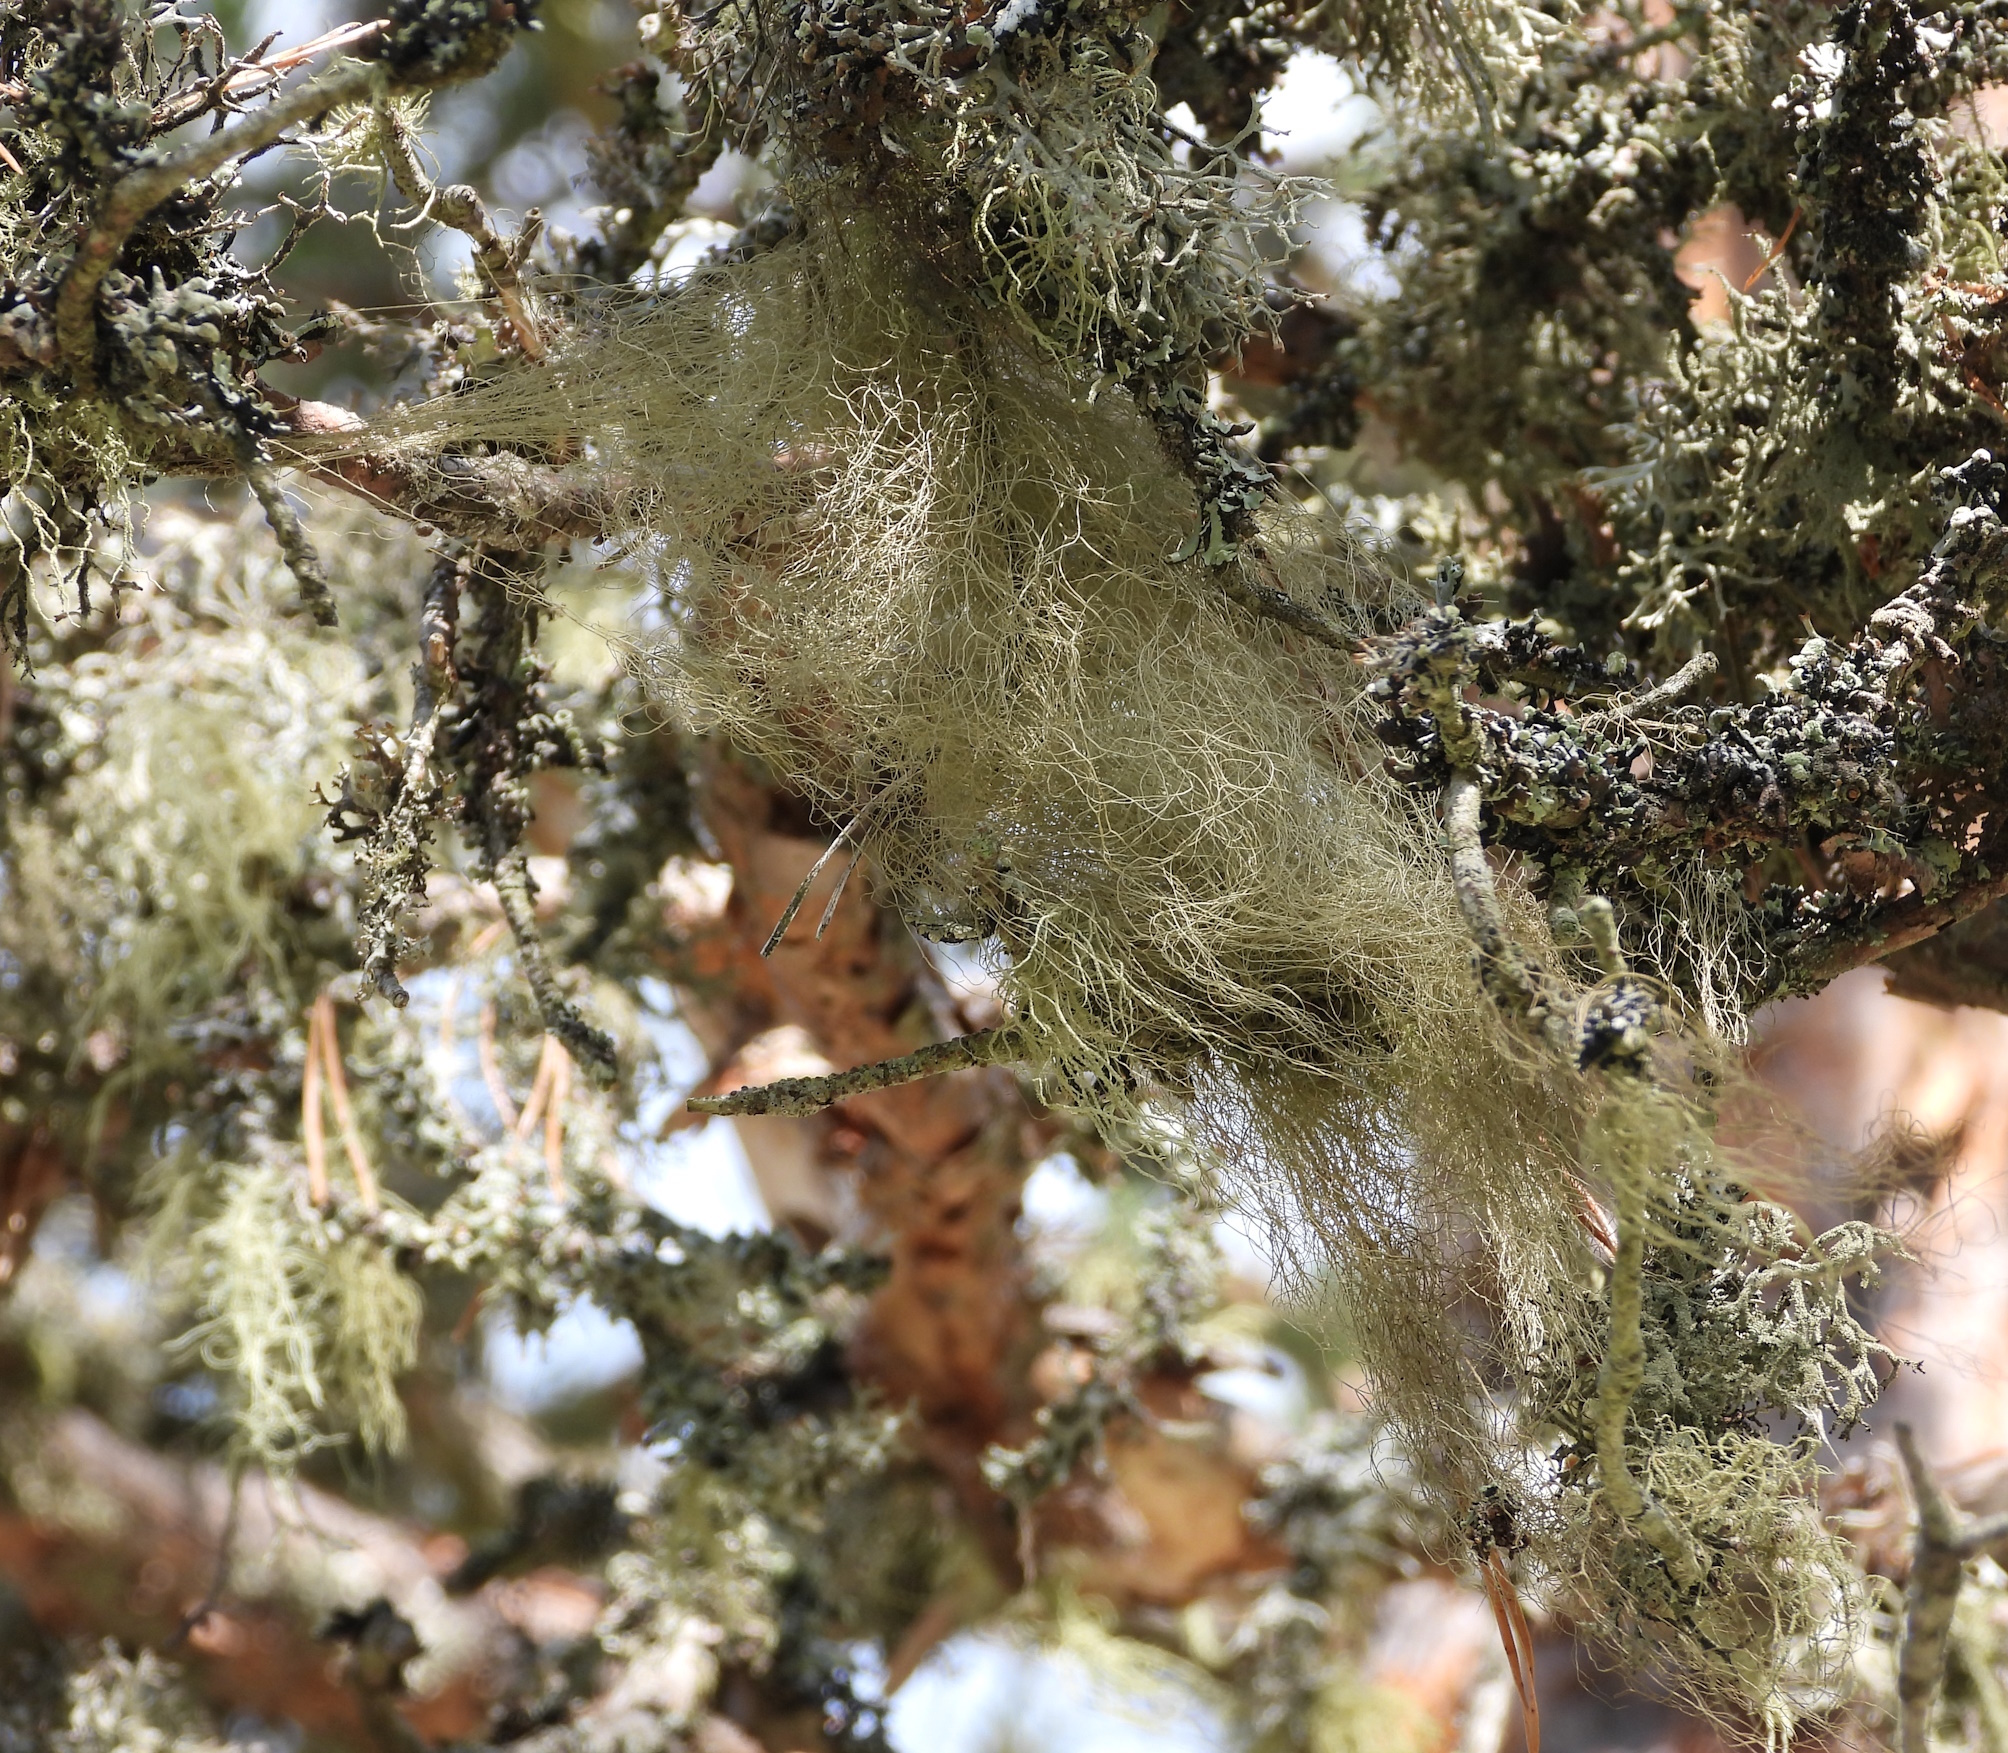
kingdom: Fungi
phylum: Ascomycota
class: Lecanoromycetes
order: Lecanorales
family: Parmeliaceae
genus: Bryoria
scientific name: Bryoria fuscescens
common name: Pale-footed horsehair lichen
